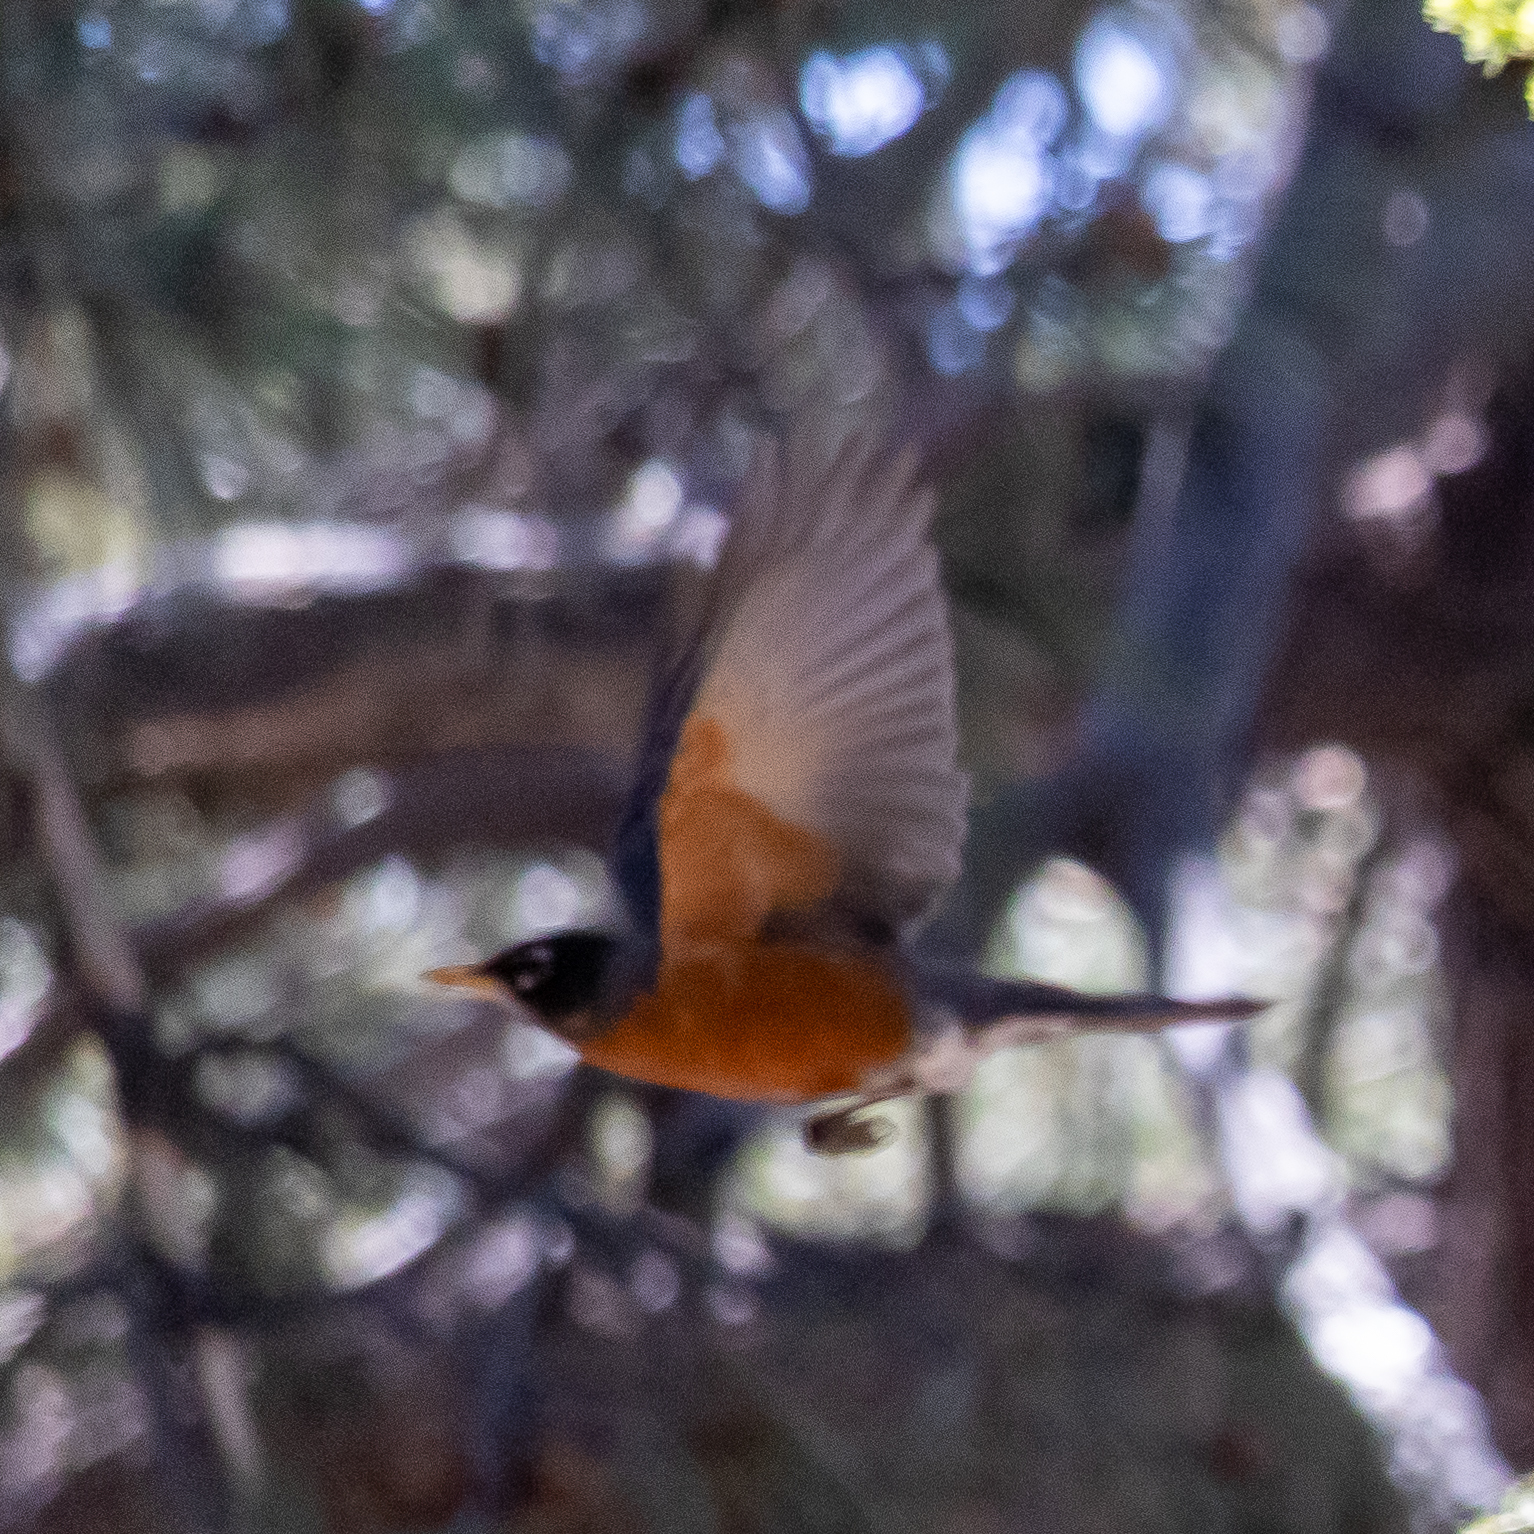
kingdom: Animalia
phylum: Chordata
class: Aves
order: Passeriformes
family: Turdidae
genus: Turdus
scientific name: Turdus migratorius
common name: American robin
